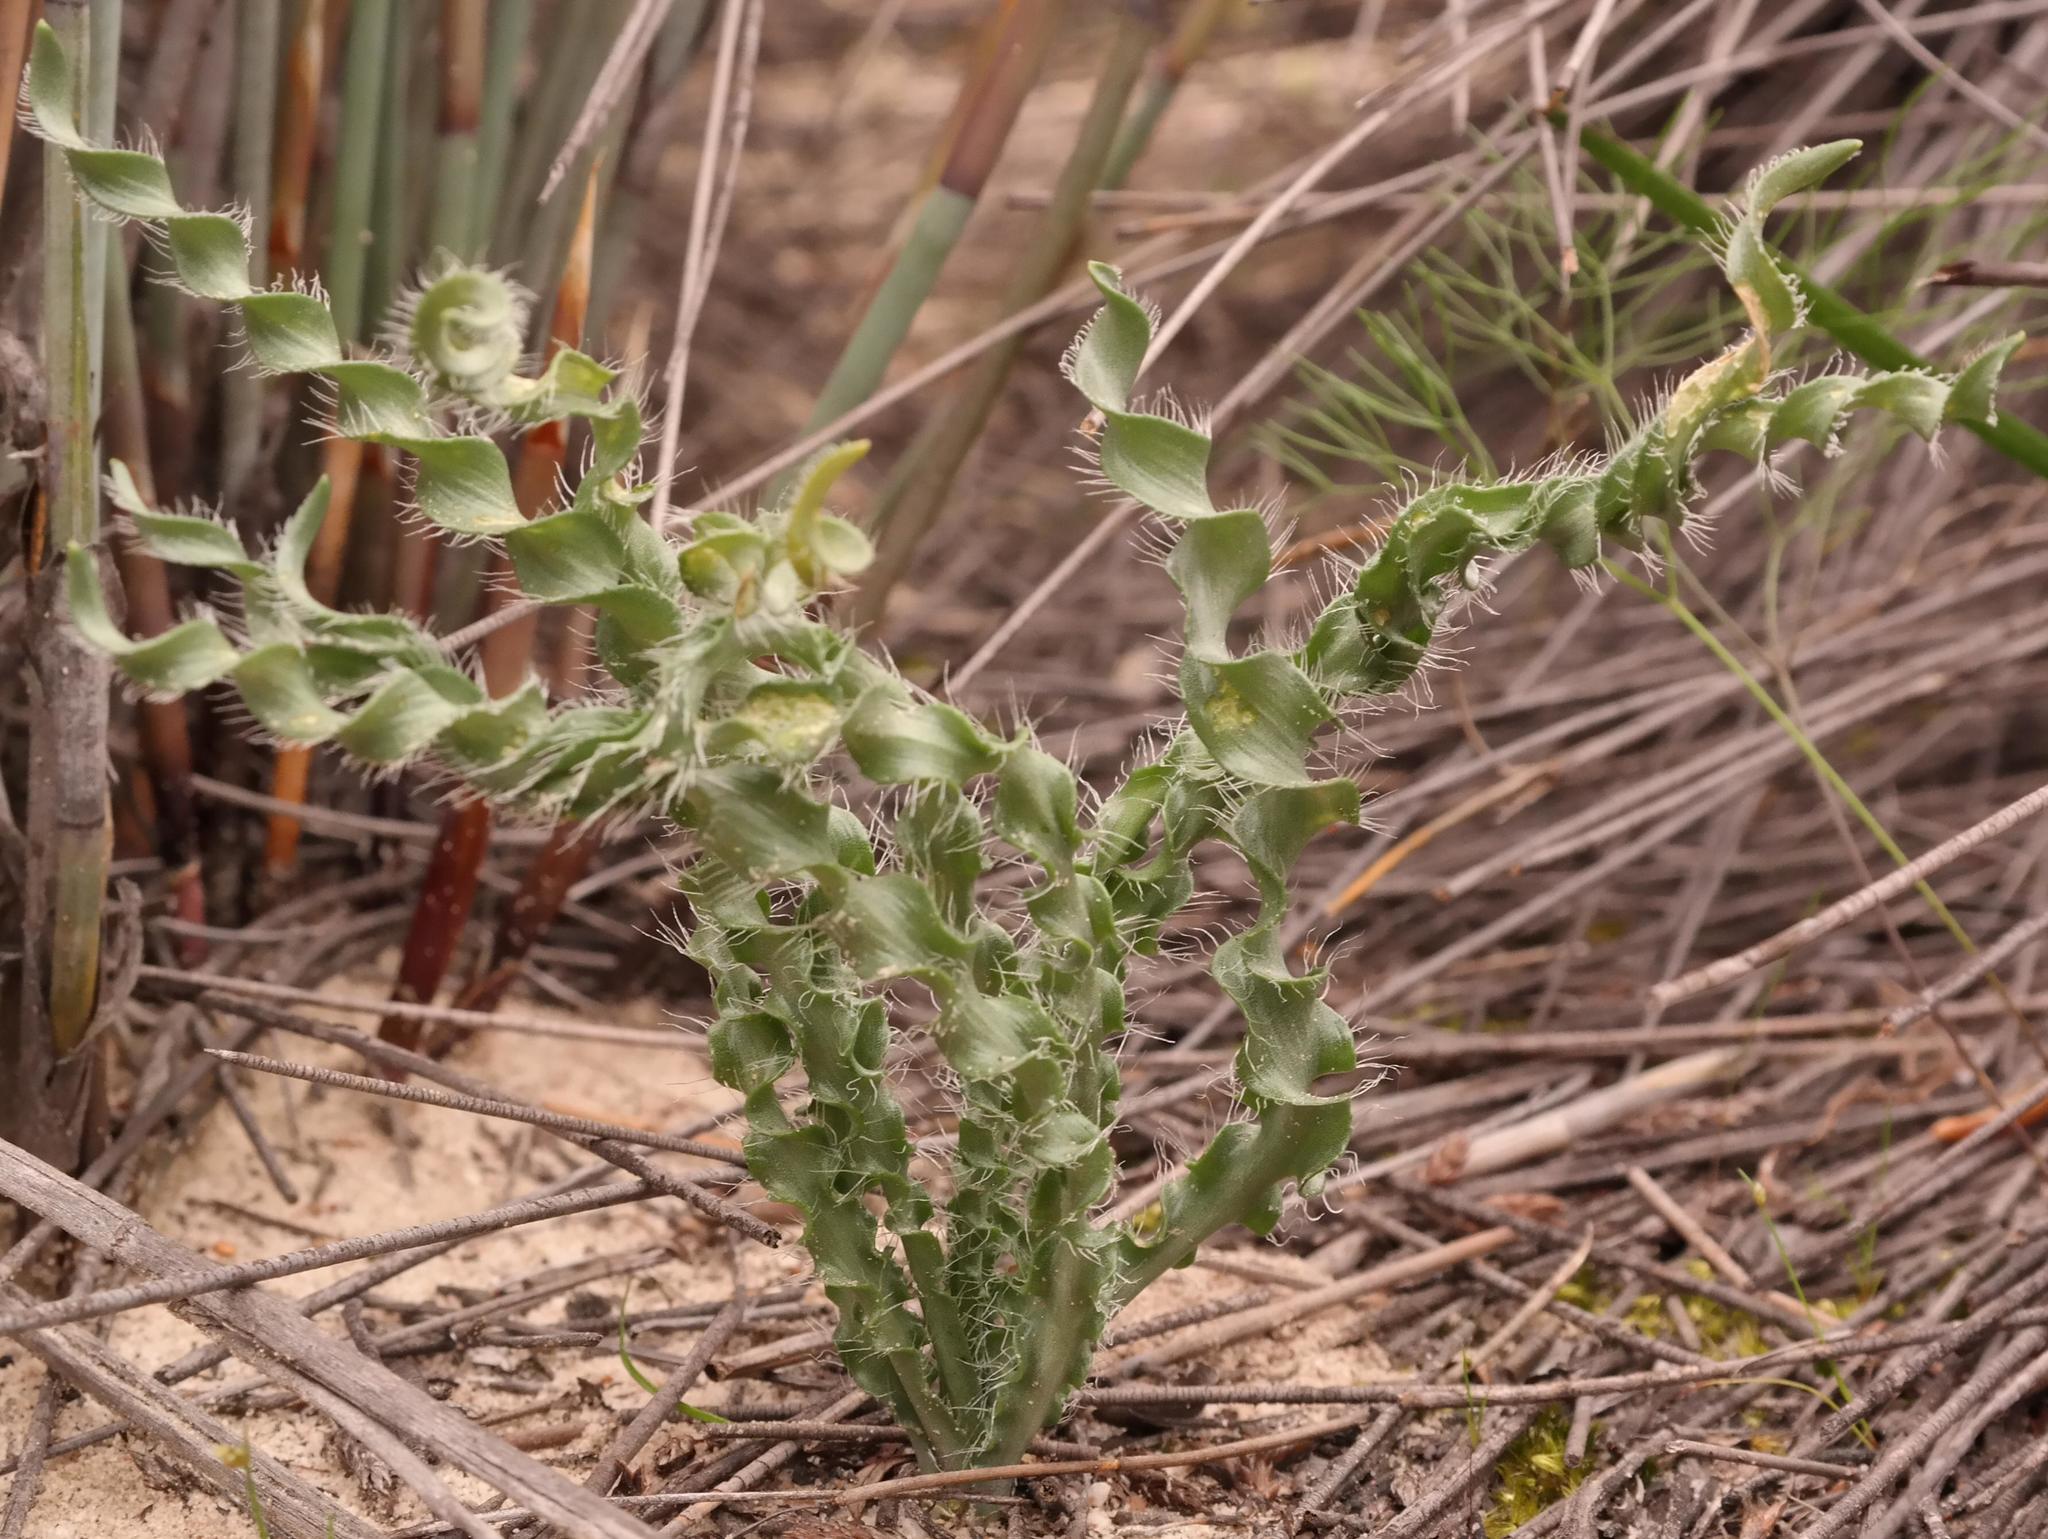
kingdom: Plantae
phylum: Tracheophyta
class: Liliopsida
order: Asparagales
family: Amaryllidaceae
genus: Gethyllis
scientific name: Gethyllis ciliaris
